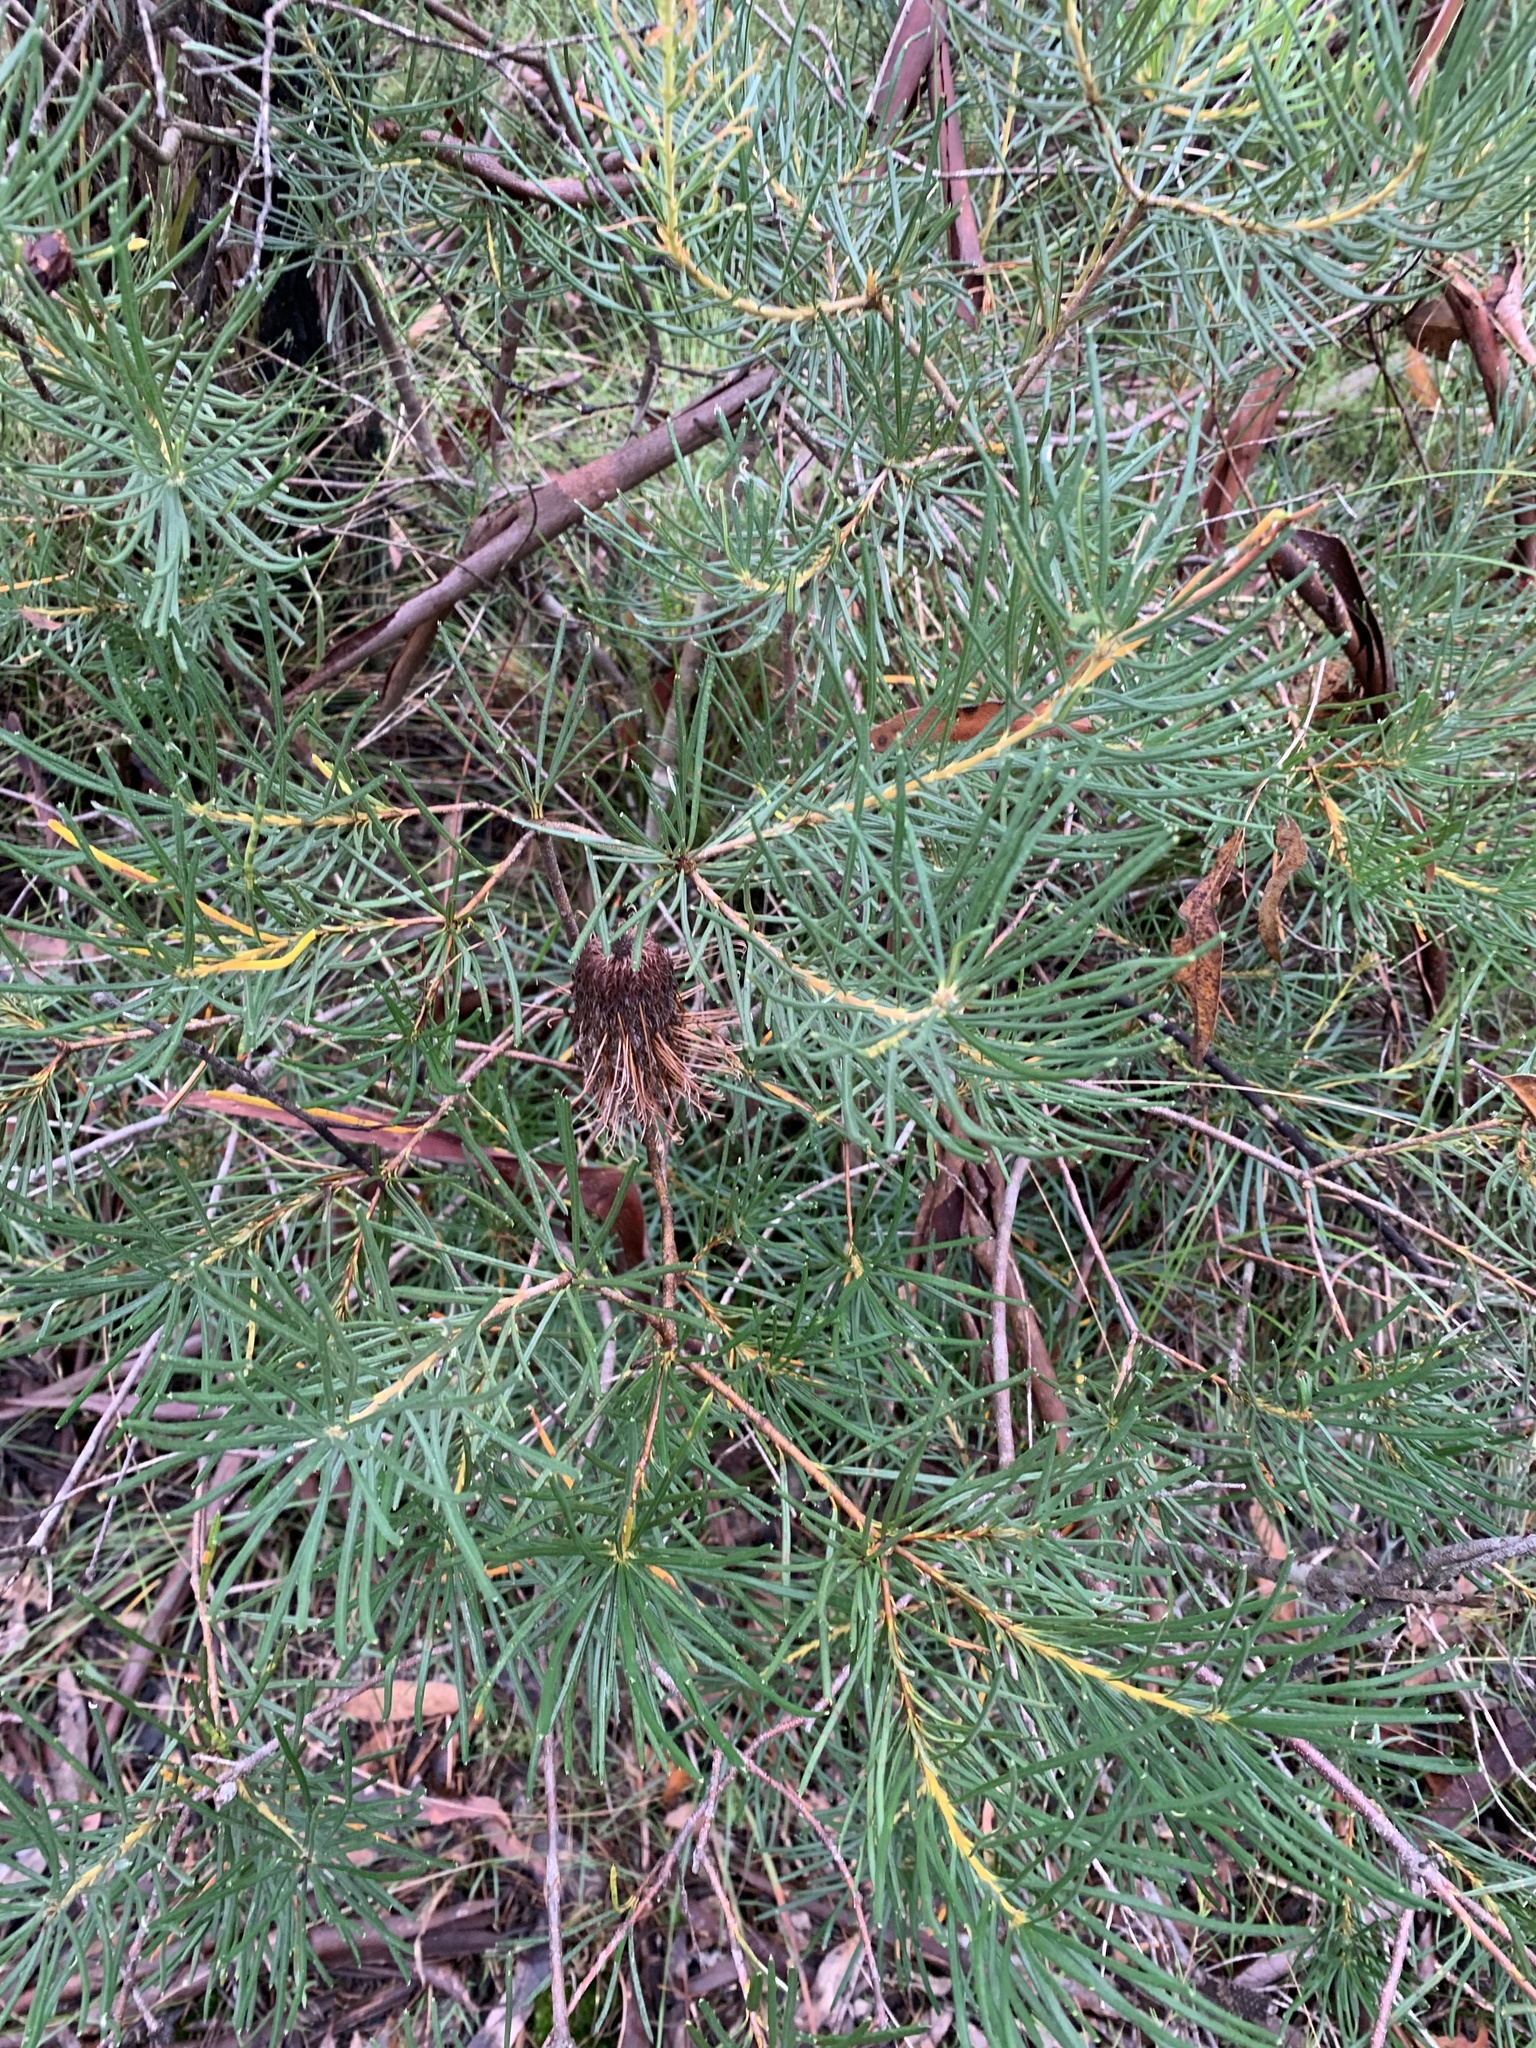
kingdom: Plantae
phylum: Tracheophyta
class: Magnoliopsida
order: Proteales
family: Proteaceae
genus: Banksia
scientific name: Banksia spinulosa
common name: Hairpin banksia
